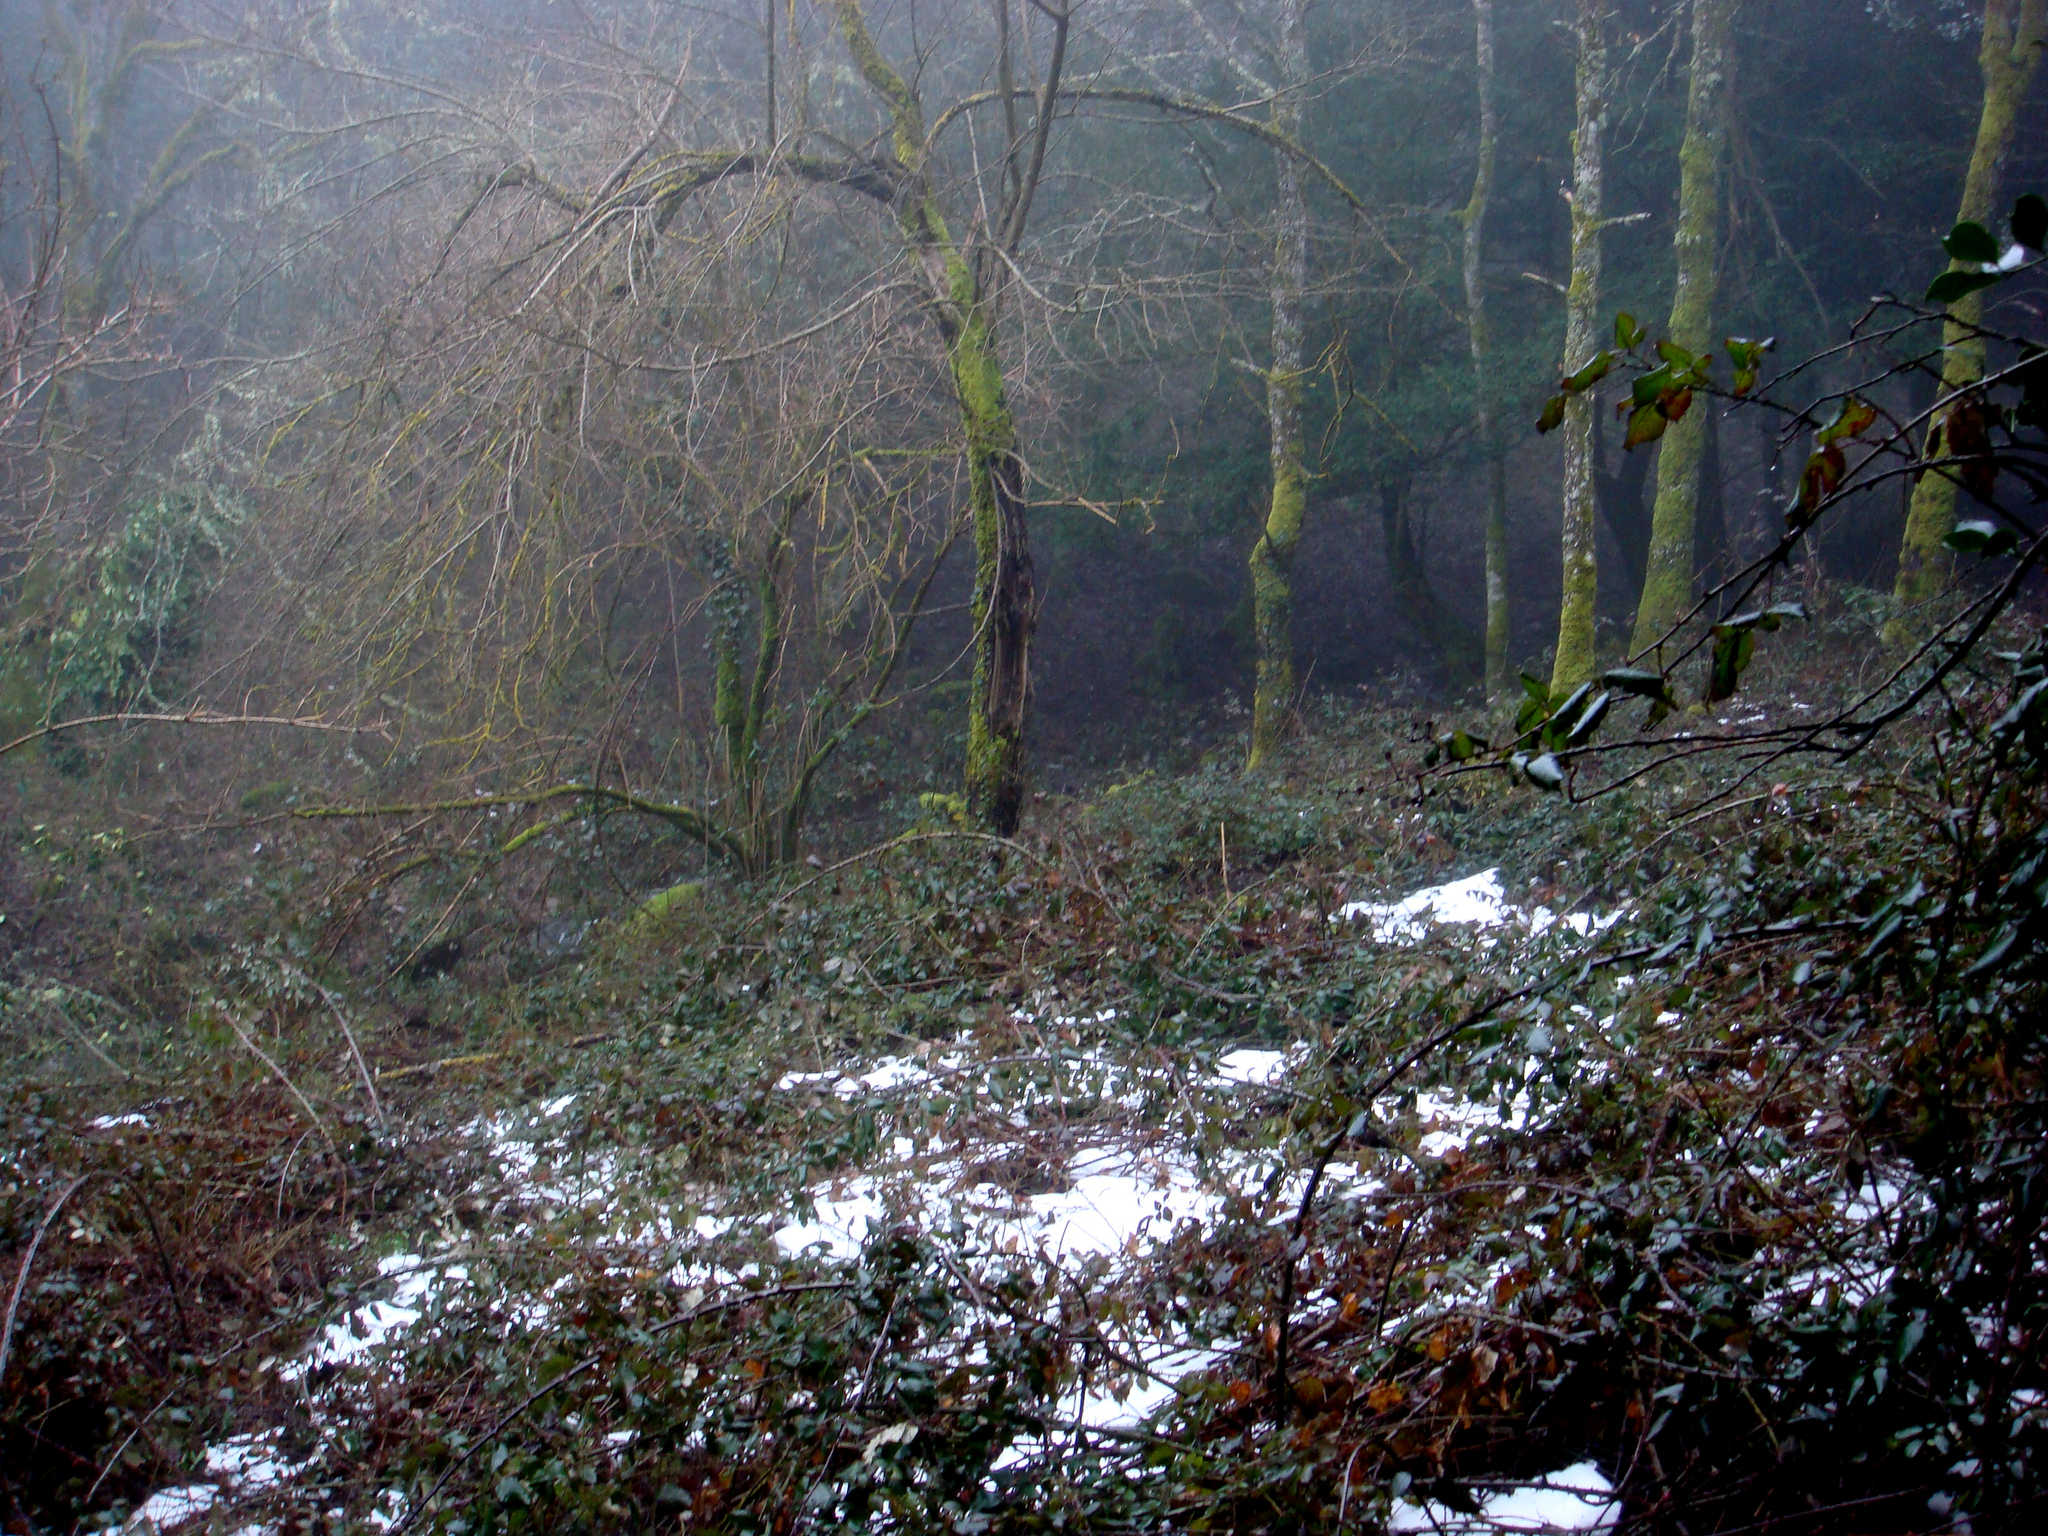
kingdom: Plantae
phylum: Tracheophyta
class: Pinopsida
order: Pinales
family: Taxaceae
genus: Taxus
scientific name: Taxus baccata
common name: Yew
